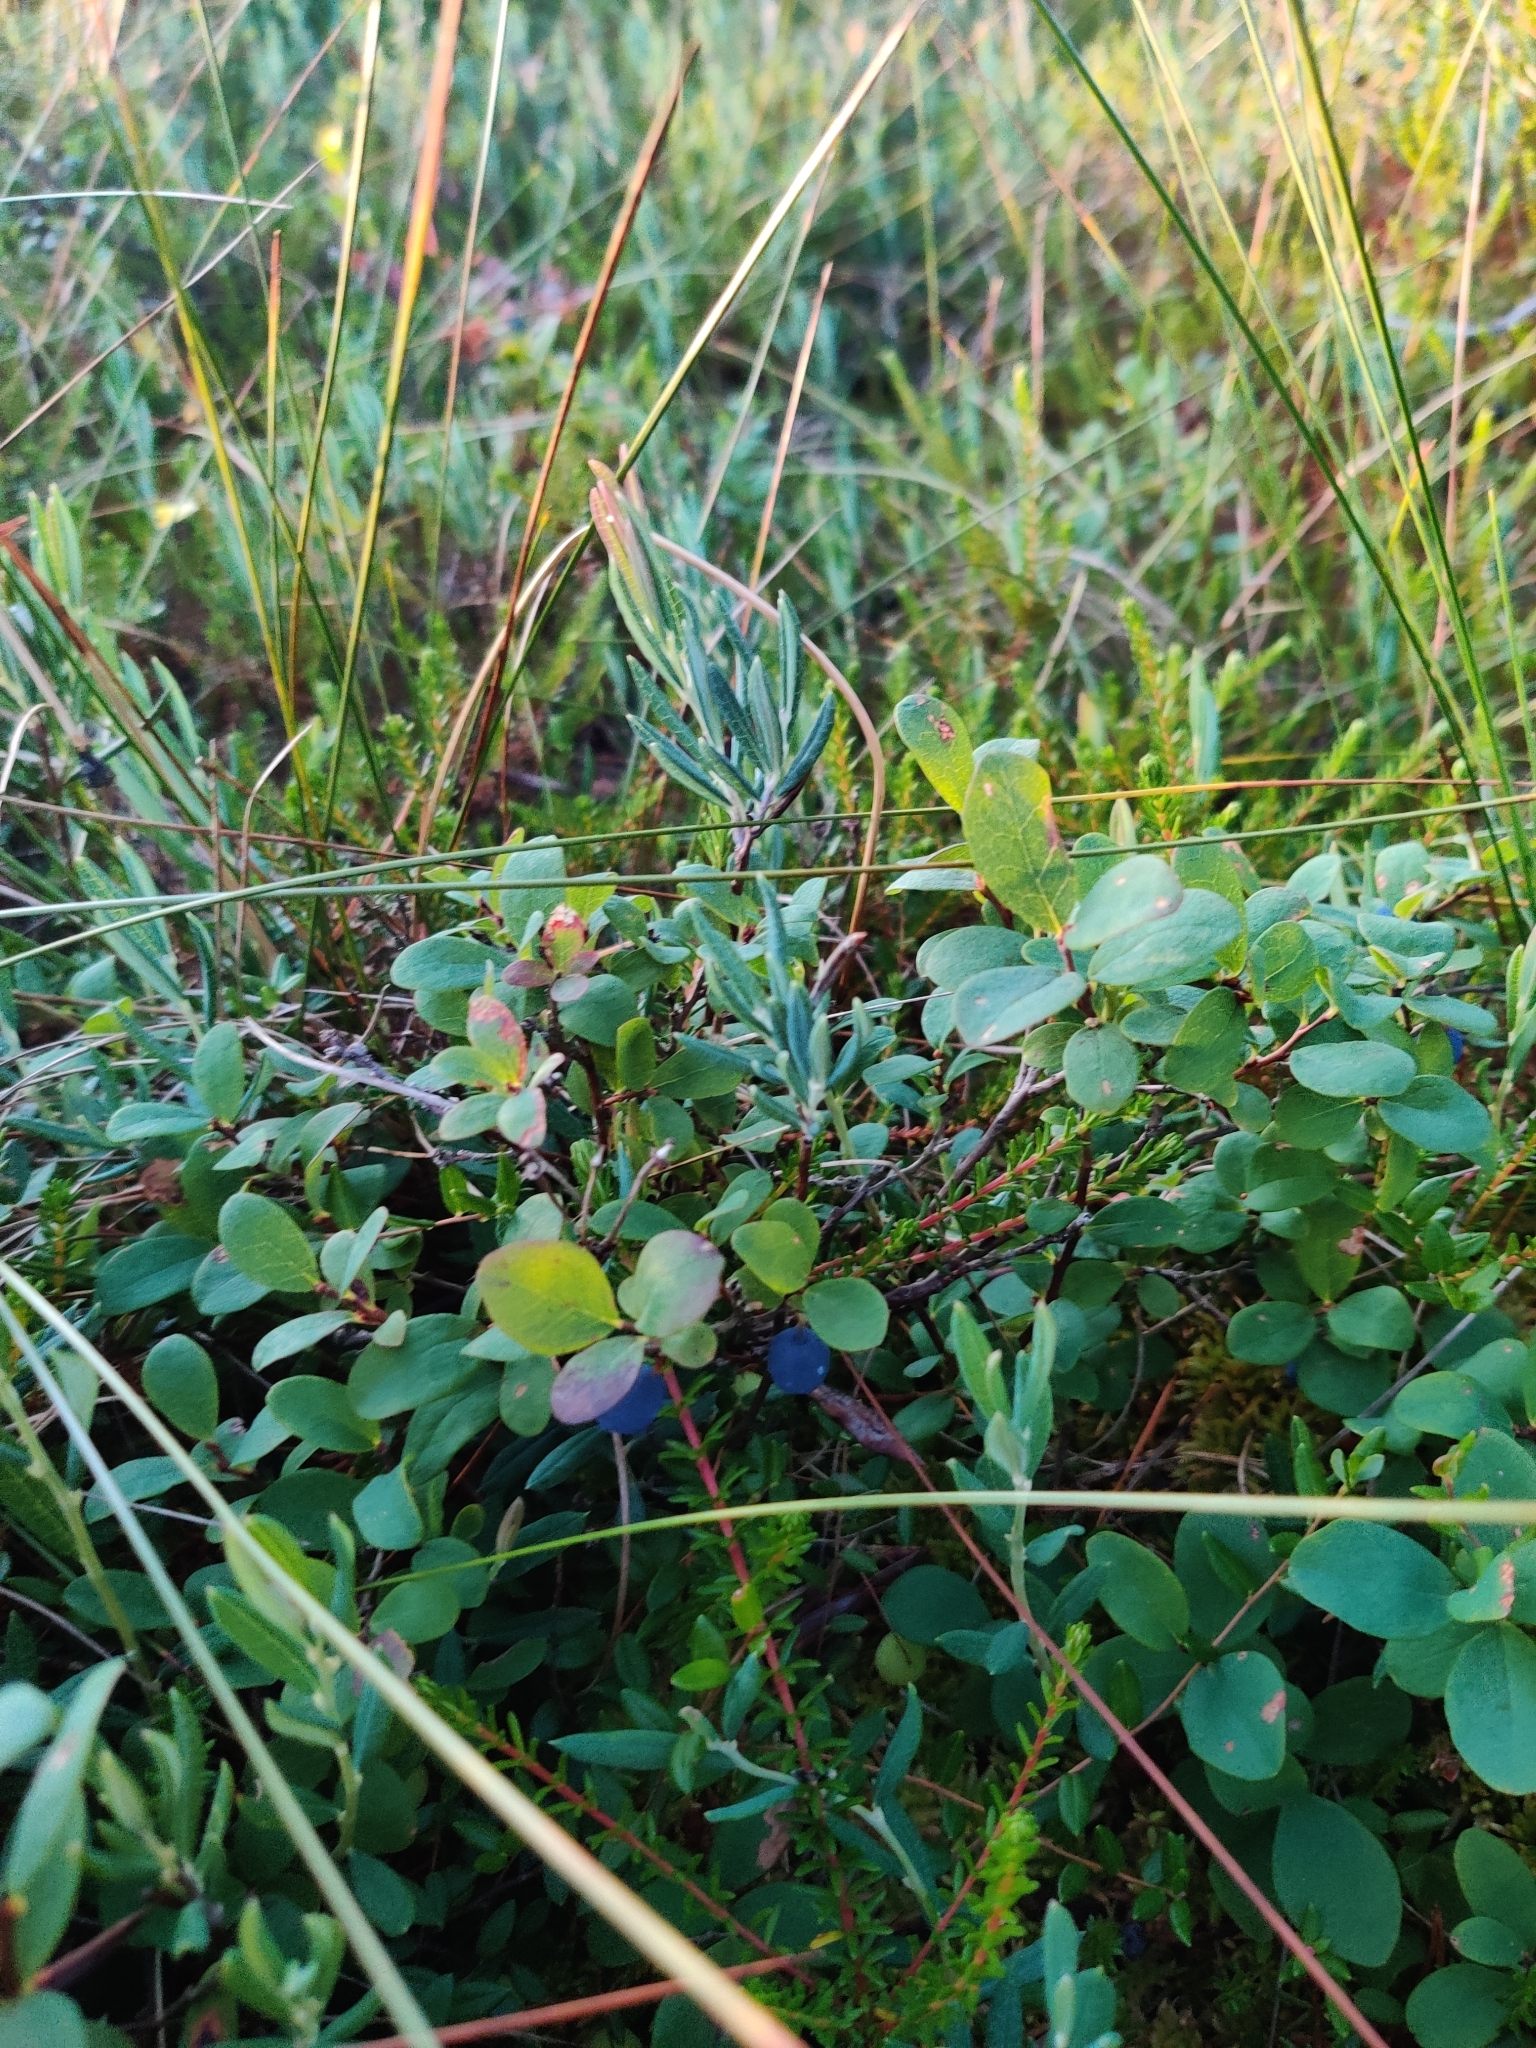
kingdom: Plantae
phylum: Tracheophyta
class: Magnoliopsida
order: Ericales
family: Ericaceae
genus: Vaccinium
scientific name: Vaccinium uliginosum
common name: Bog bilberry
